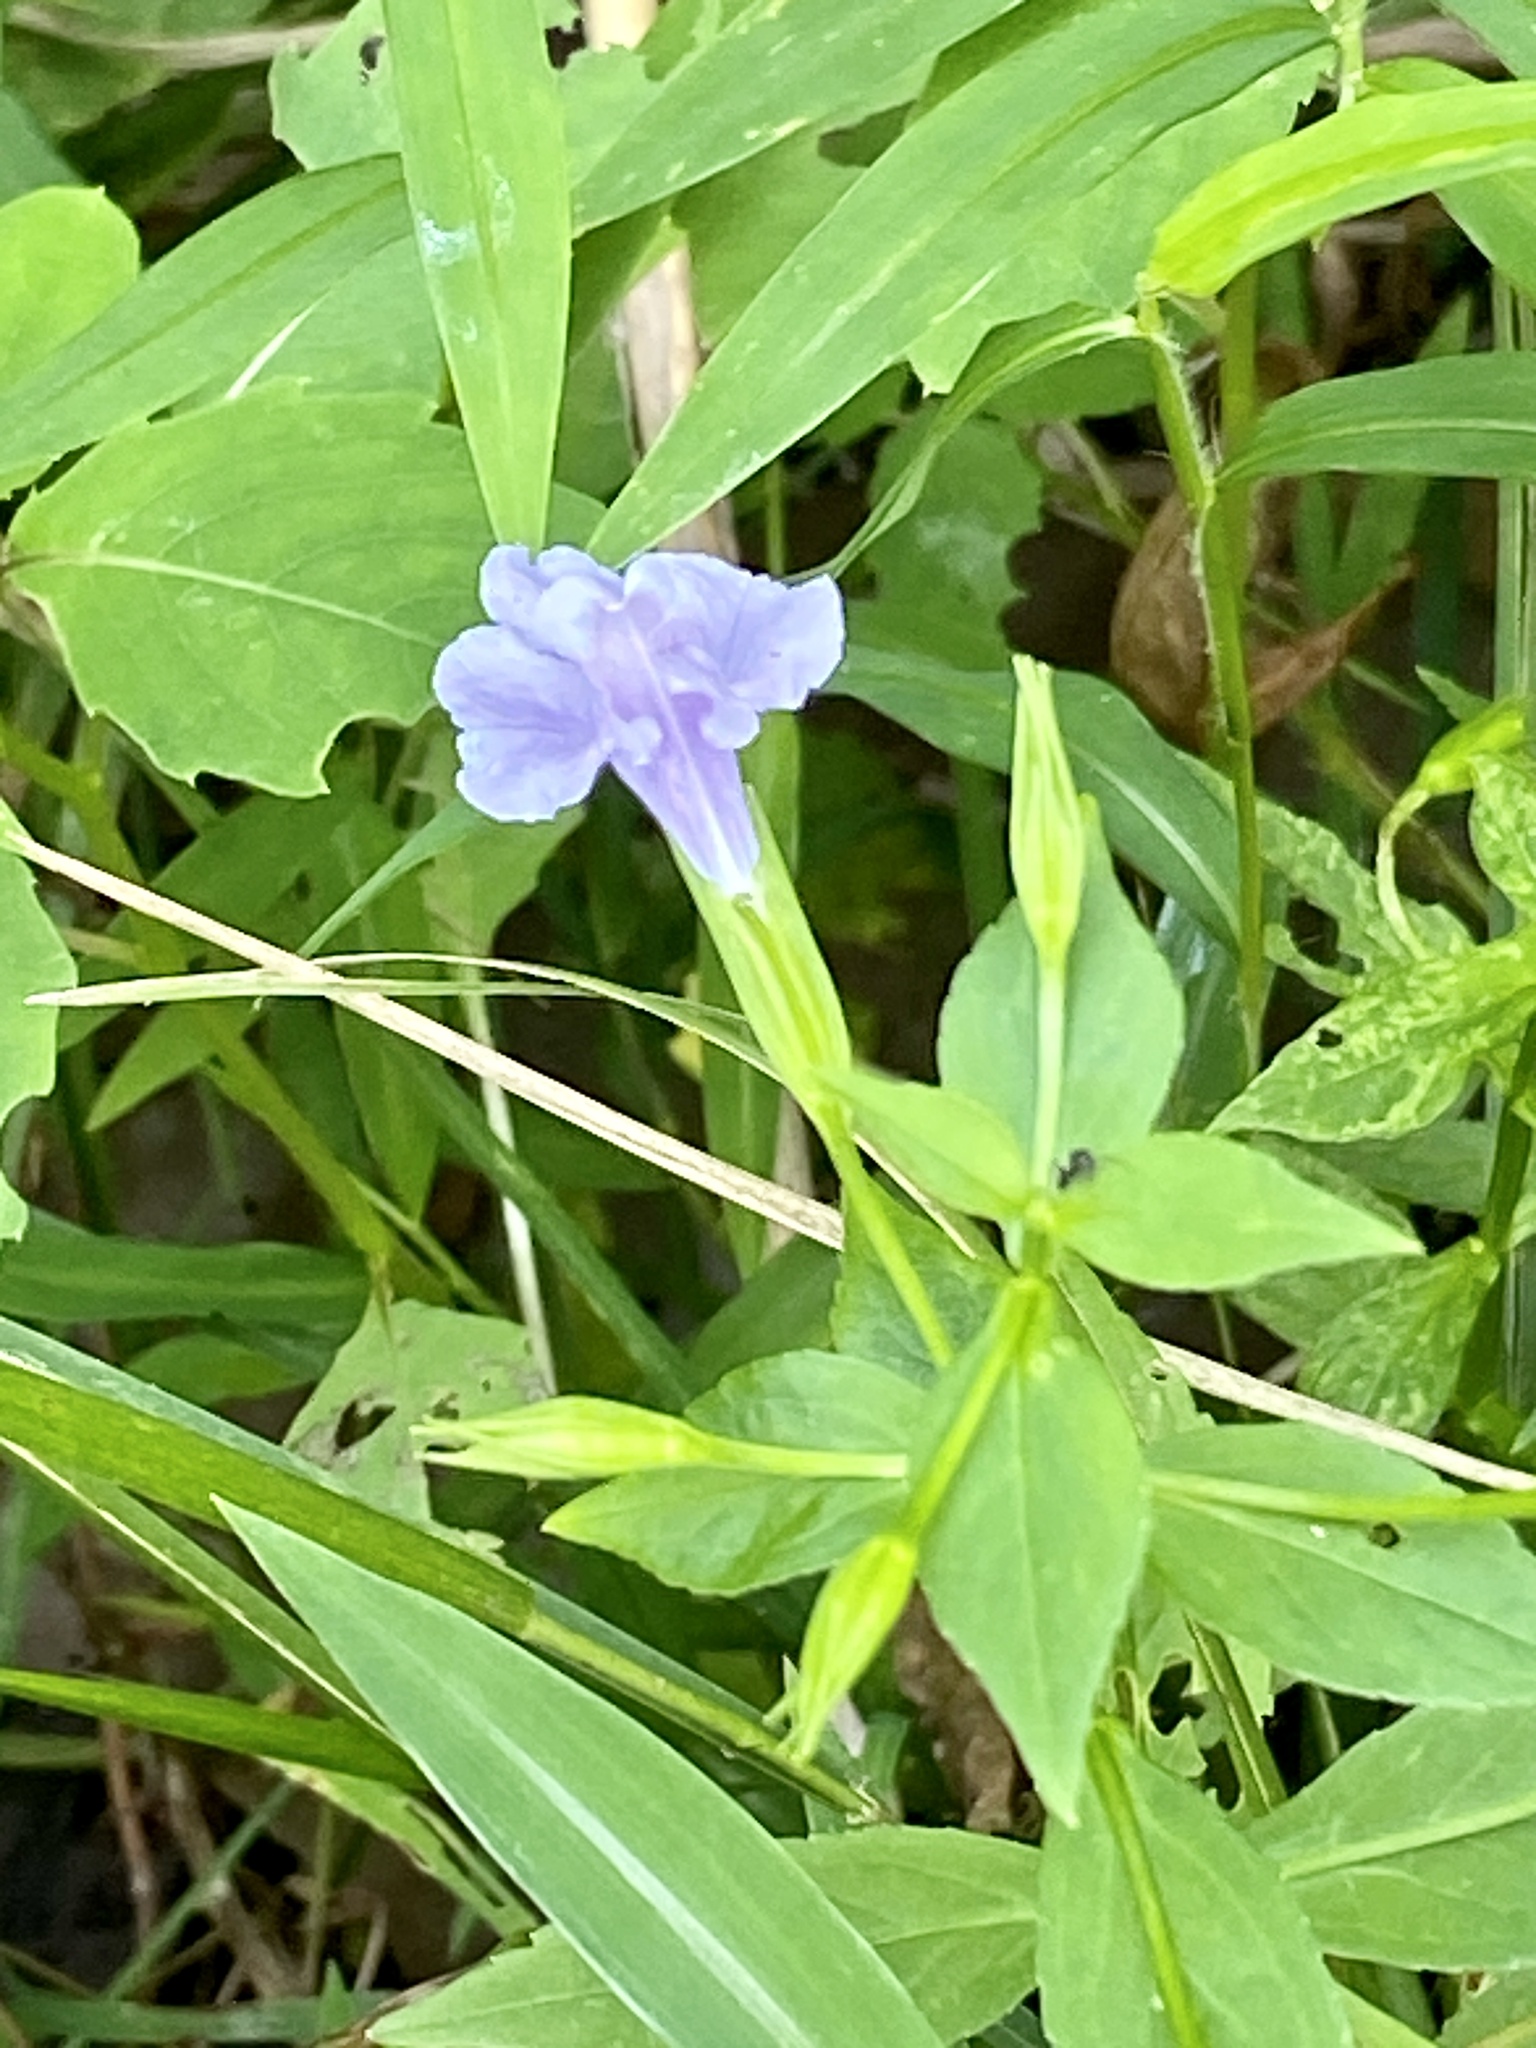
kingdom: Plantae
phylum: Tracheophyta
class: Magnoliopsida
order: Lamiales
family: Phrymaceae
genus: Mimulus
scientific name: Mimulus ringens
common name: Allegheny monkeyflower
